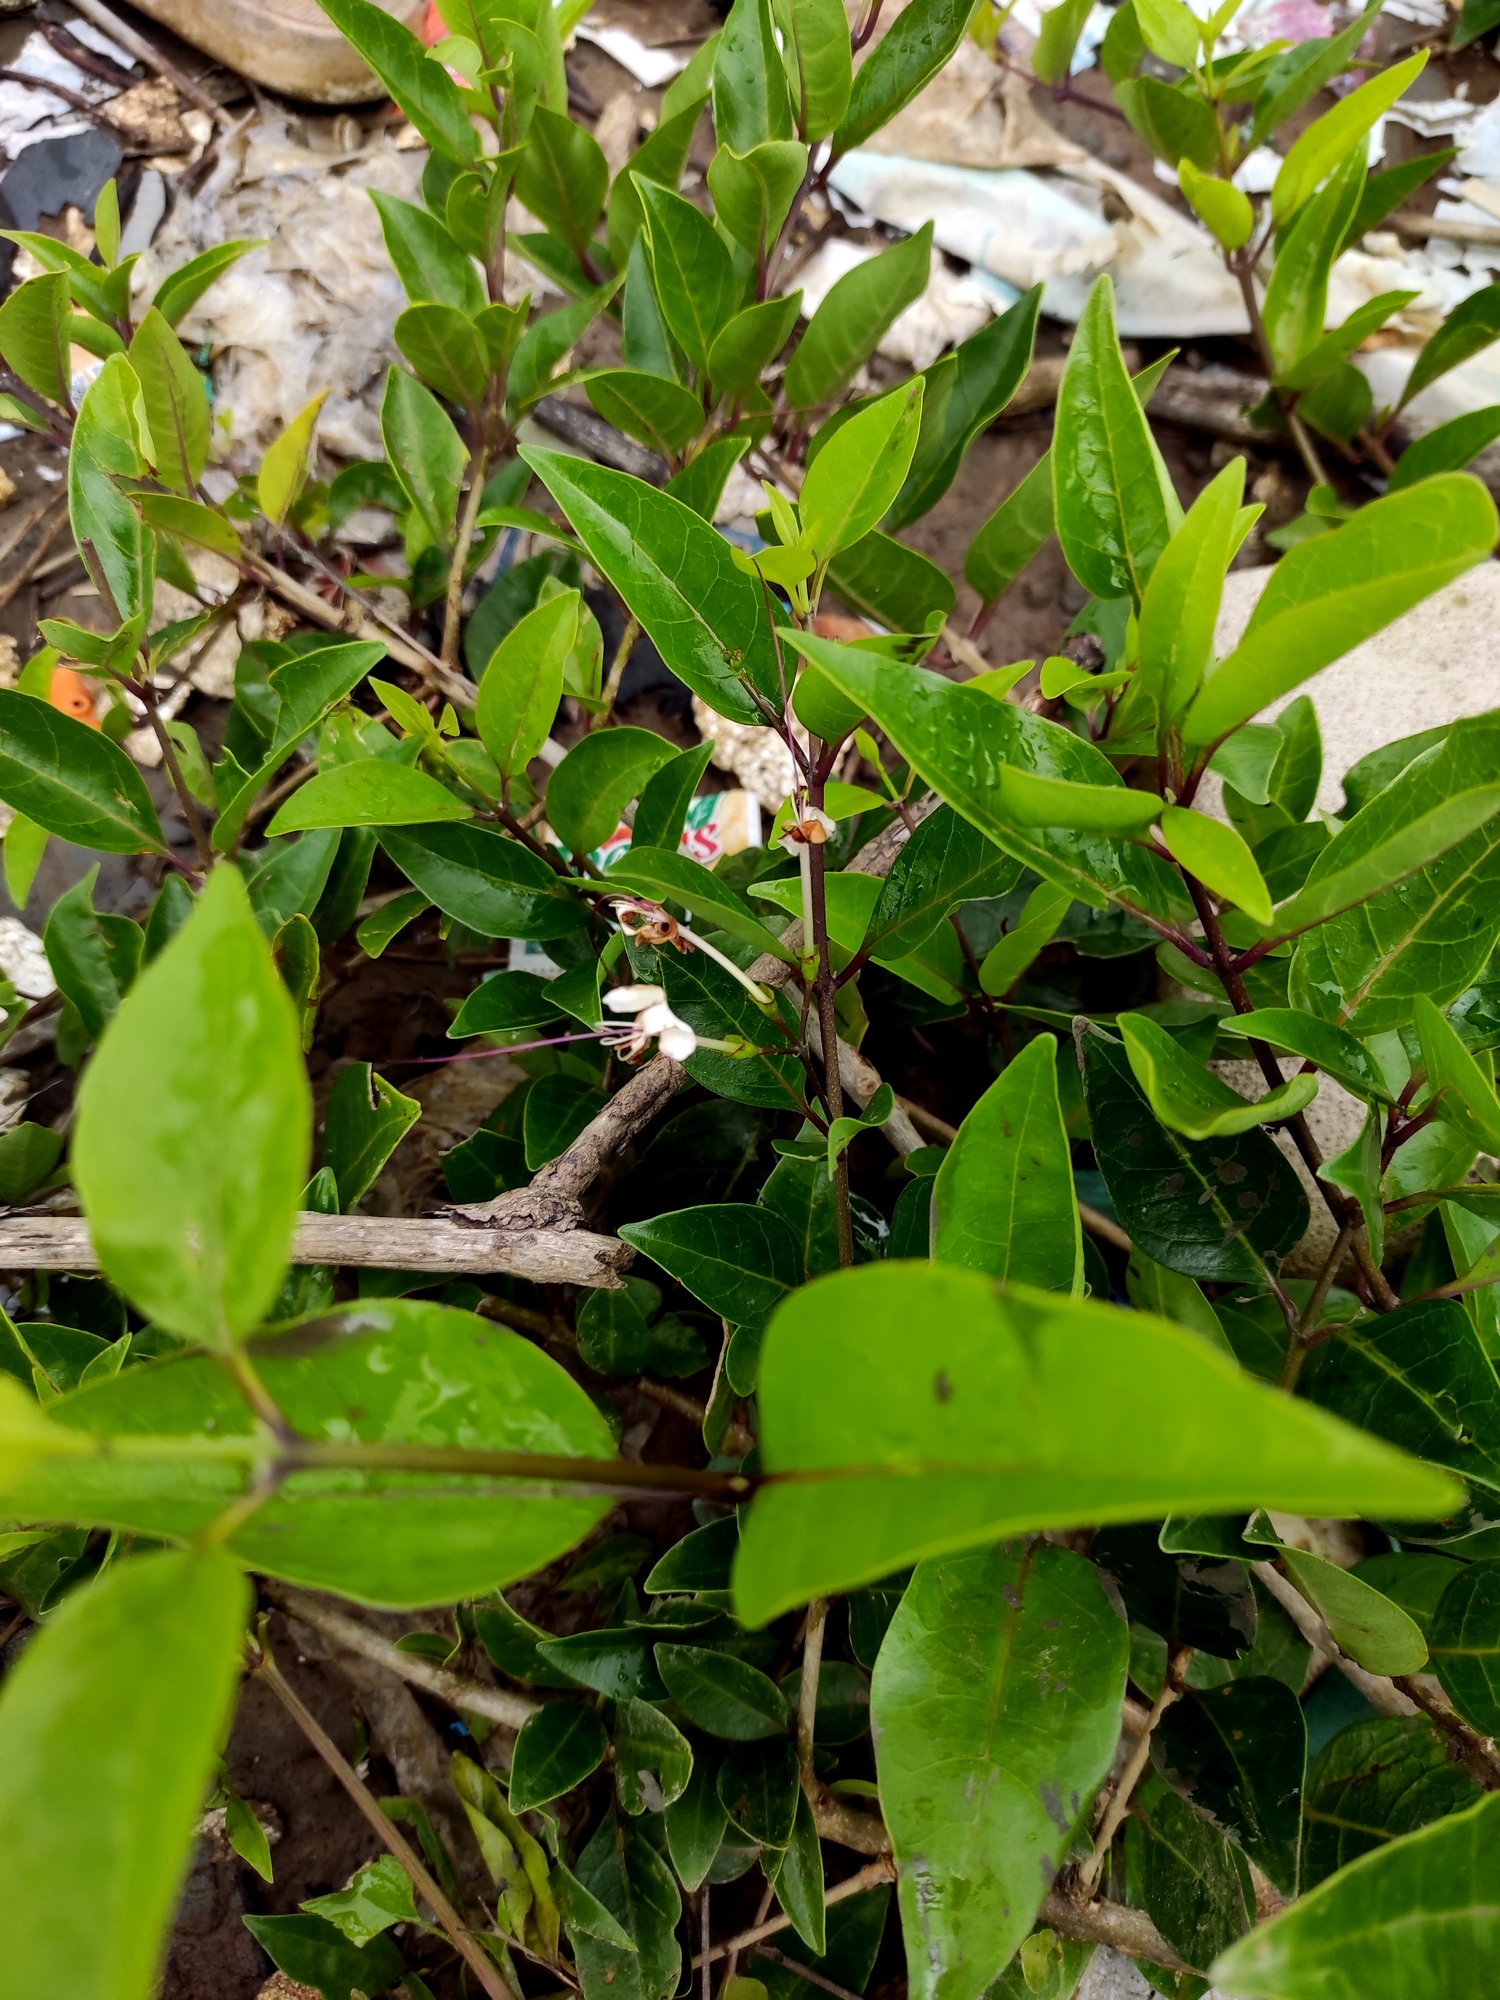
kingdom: Plantae
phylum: Tracheophyta
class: Magnoliopsida
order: Lamiales
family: Lamiaceae
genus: Volkameria
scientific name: Volkameria inermis
